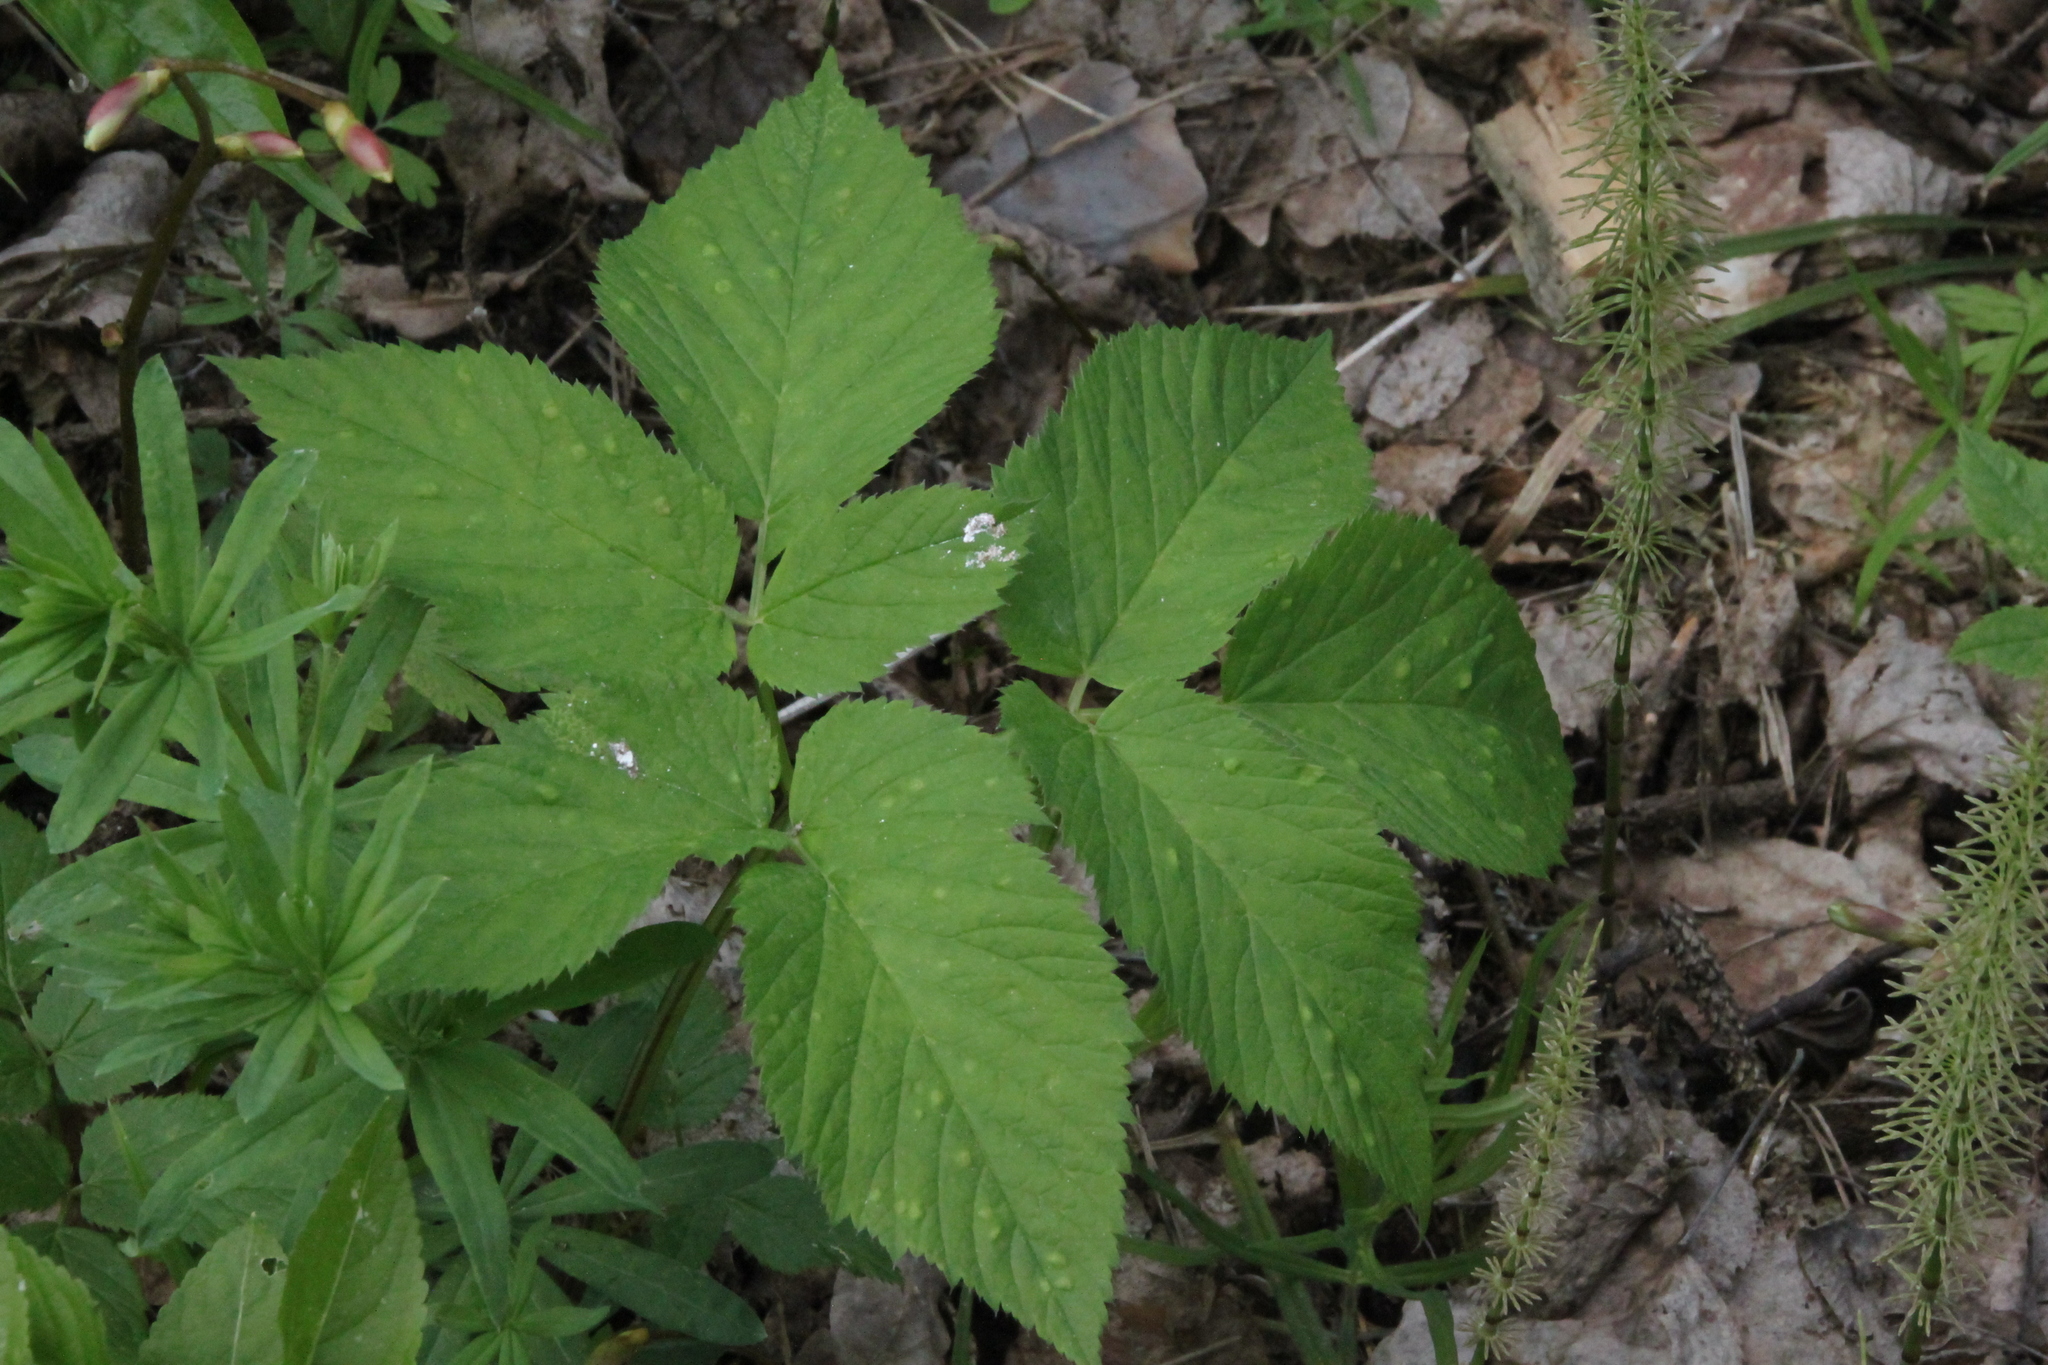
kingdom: Plantae
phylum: Tracheophyta
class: Magnoliopsida
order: Apiales
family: Apiaceae
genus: Aegopodium
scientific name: Aegopodium podagraria
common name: Ground-elder
